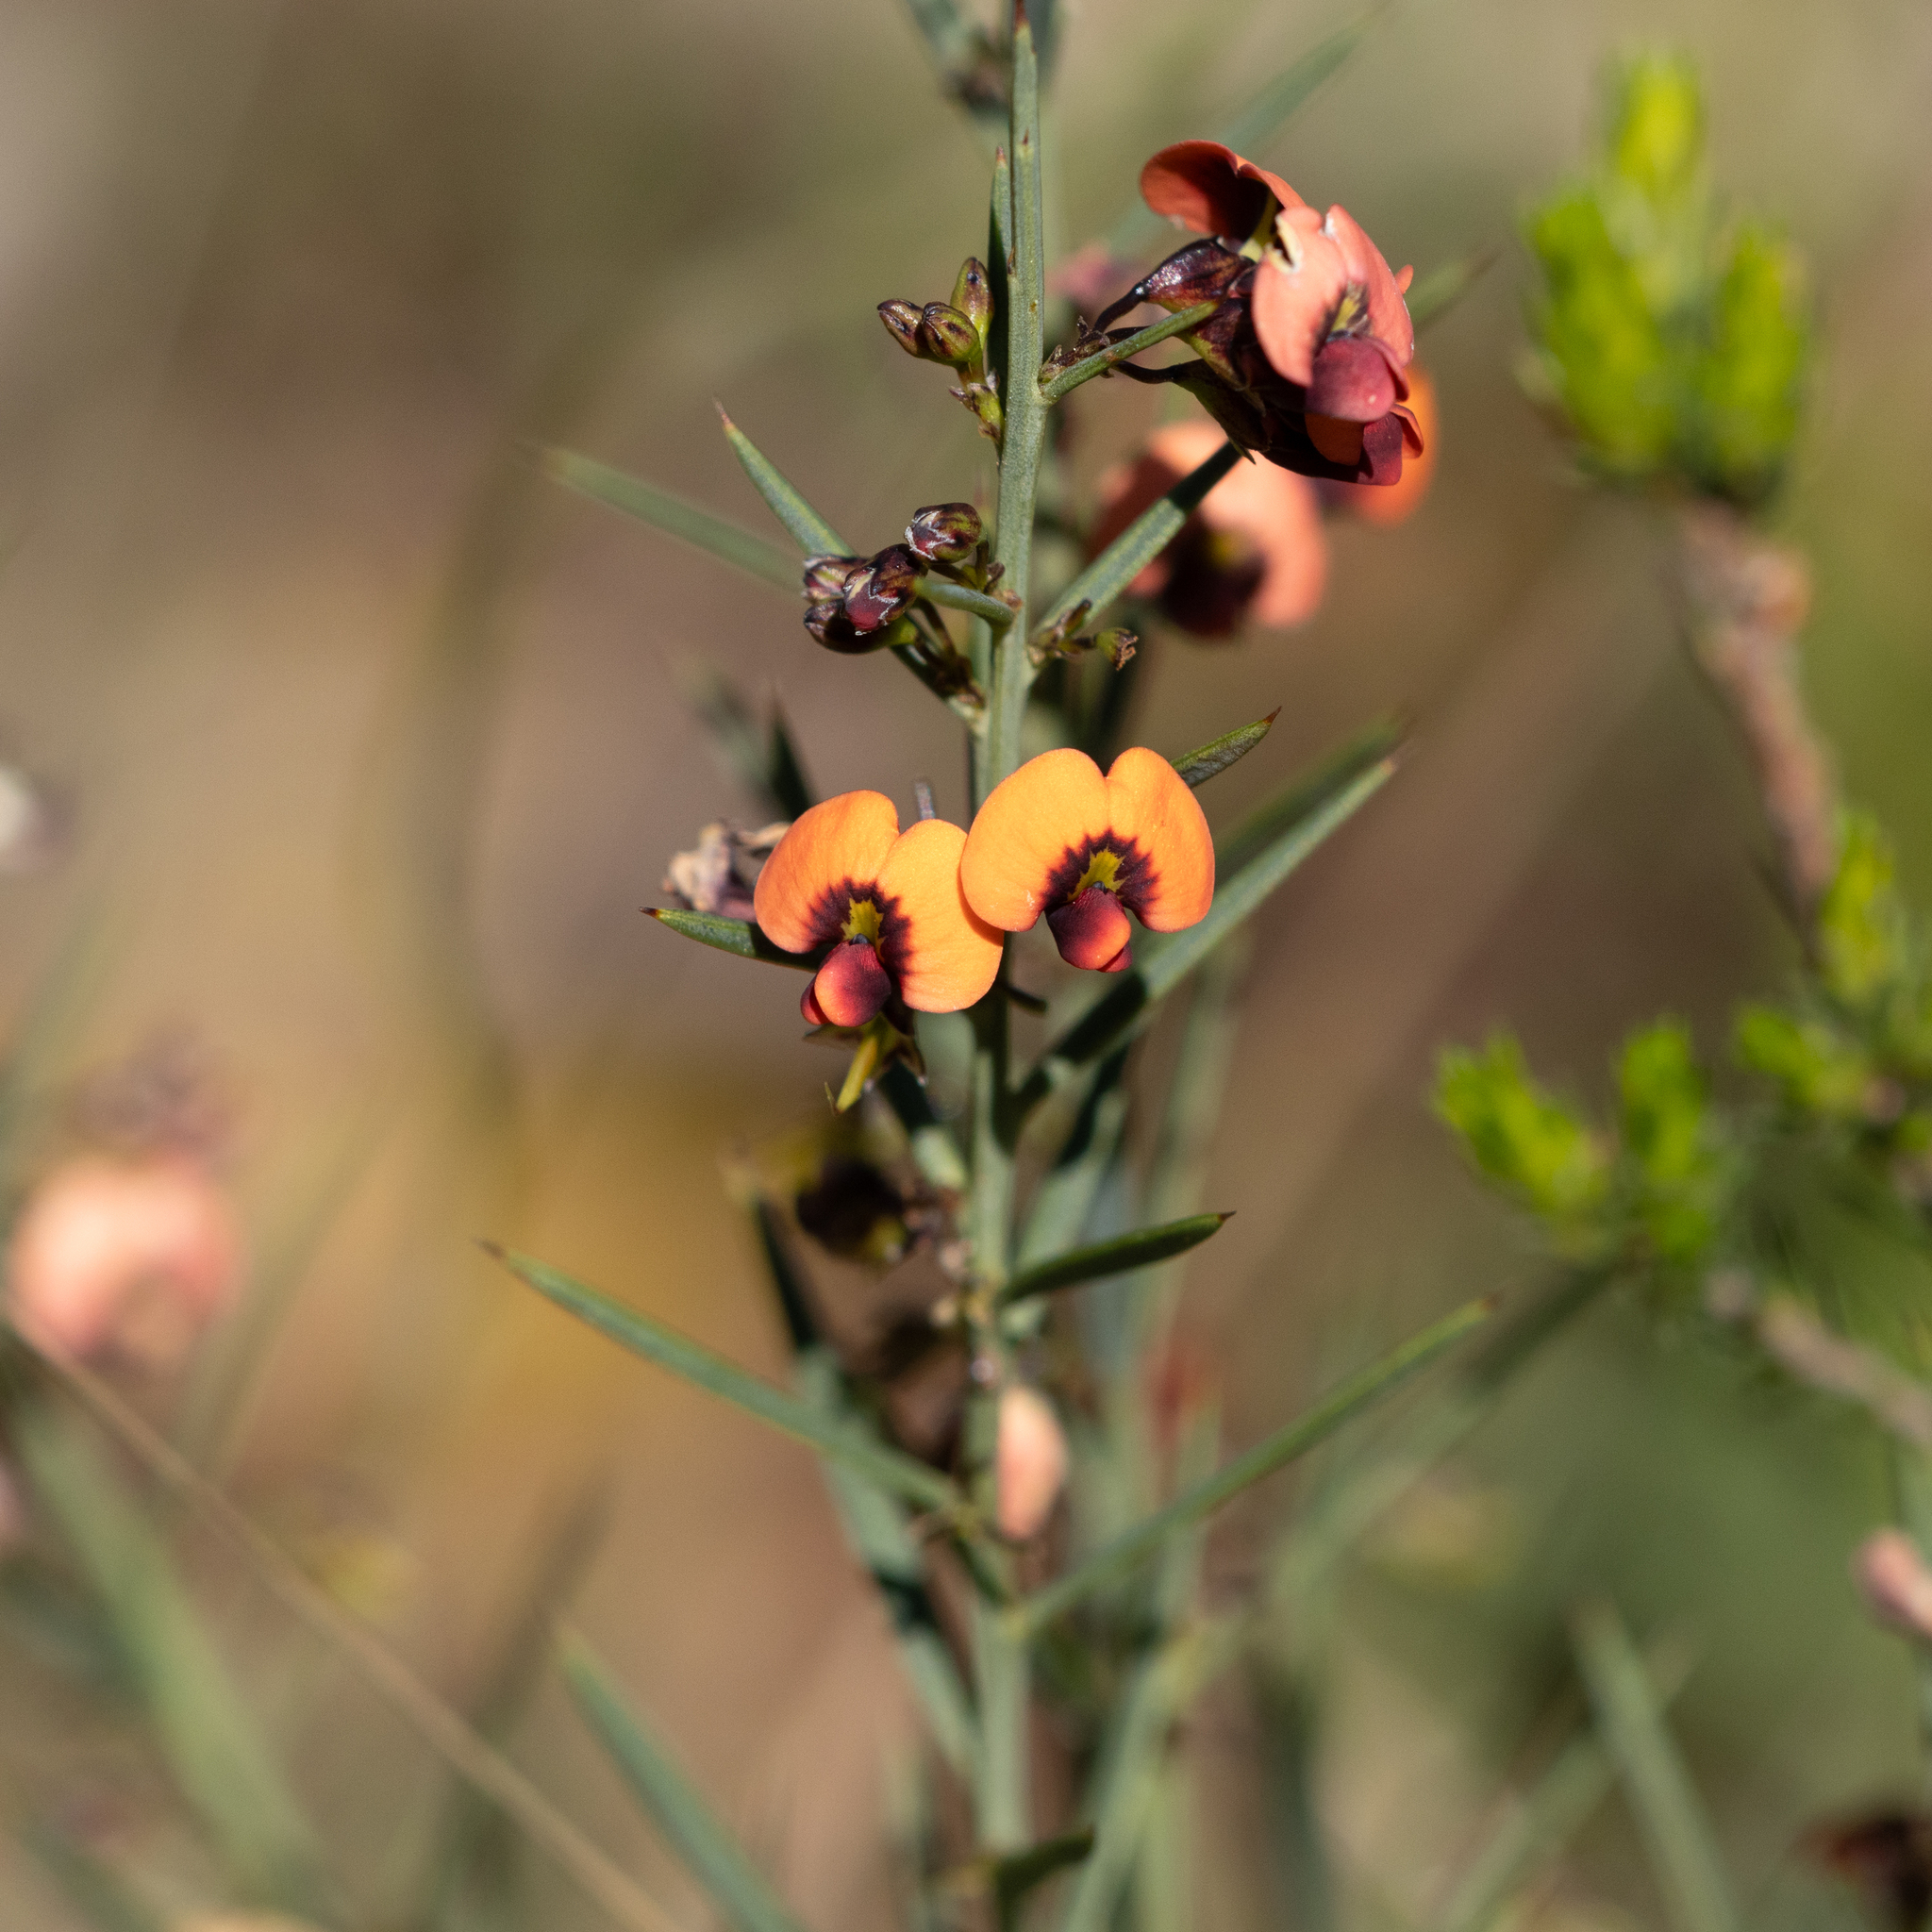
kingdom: Plantae
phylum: Tracheophyta
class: Magnoliopsida
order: Fabales
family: Fabaceae
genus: Daviesia
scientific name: Daviesia ulicifolia
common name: Gorse bitter-pea
